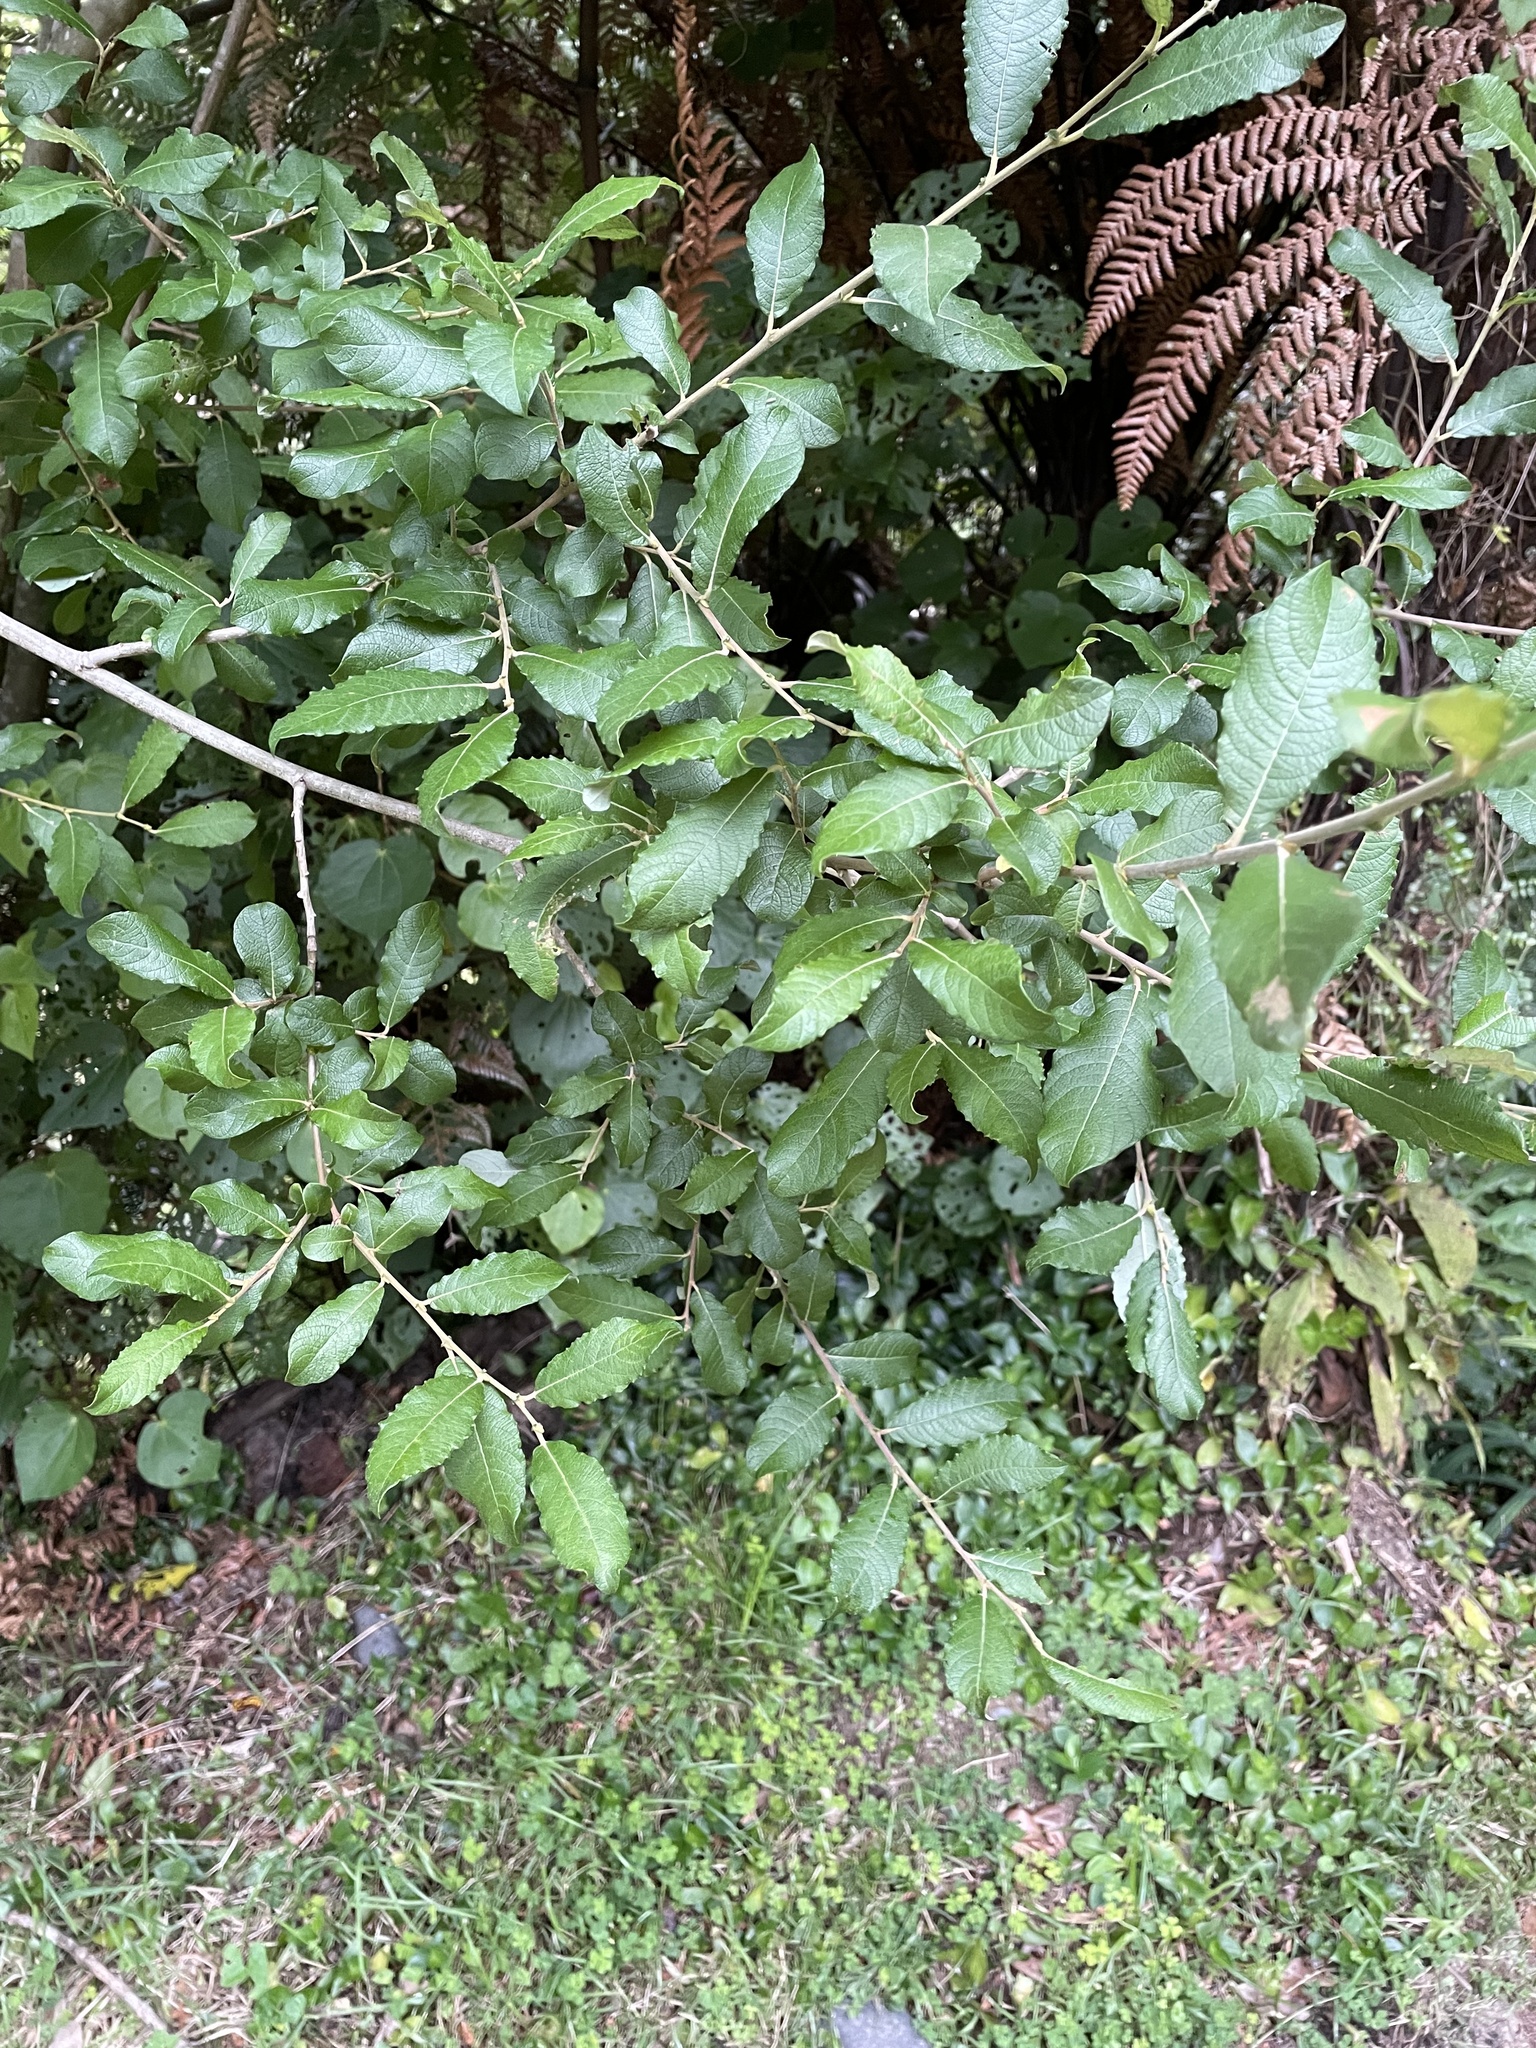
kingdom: Plantae
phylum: Tracheophyta
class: Magnoliopsida
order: Malpighiales
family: Salicaceae
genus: Salix
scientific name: Salix cinerea
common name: Common sallow
